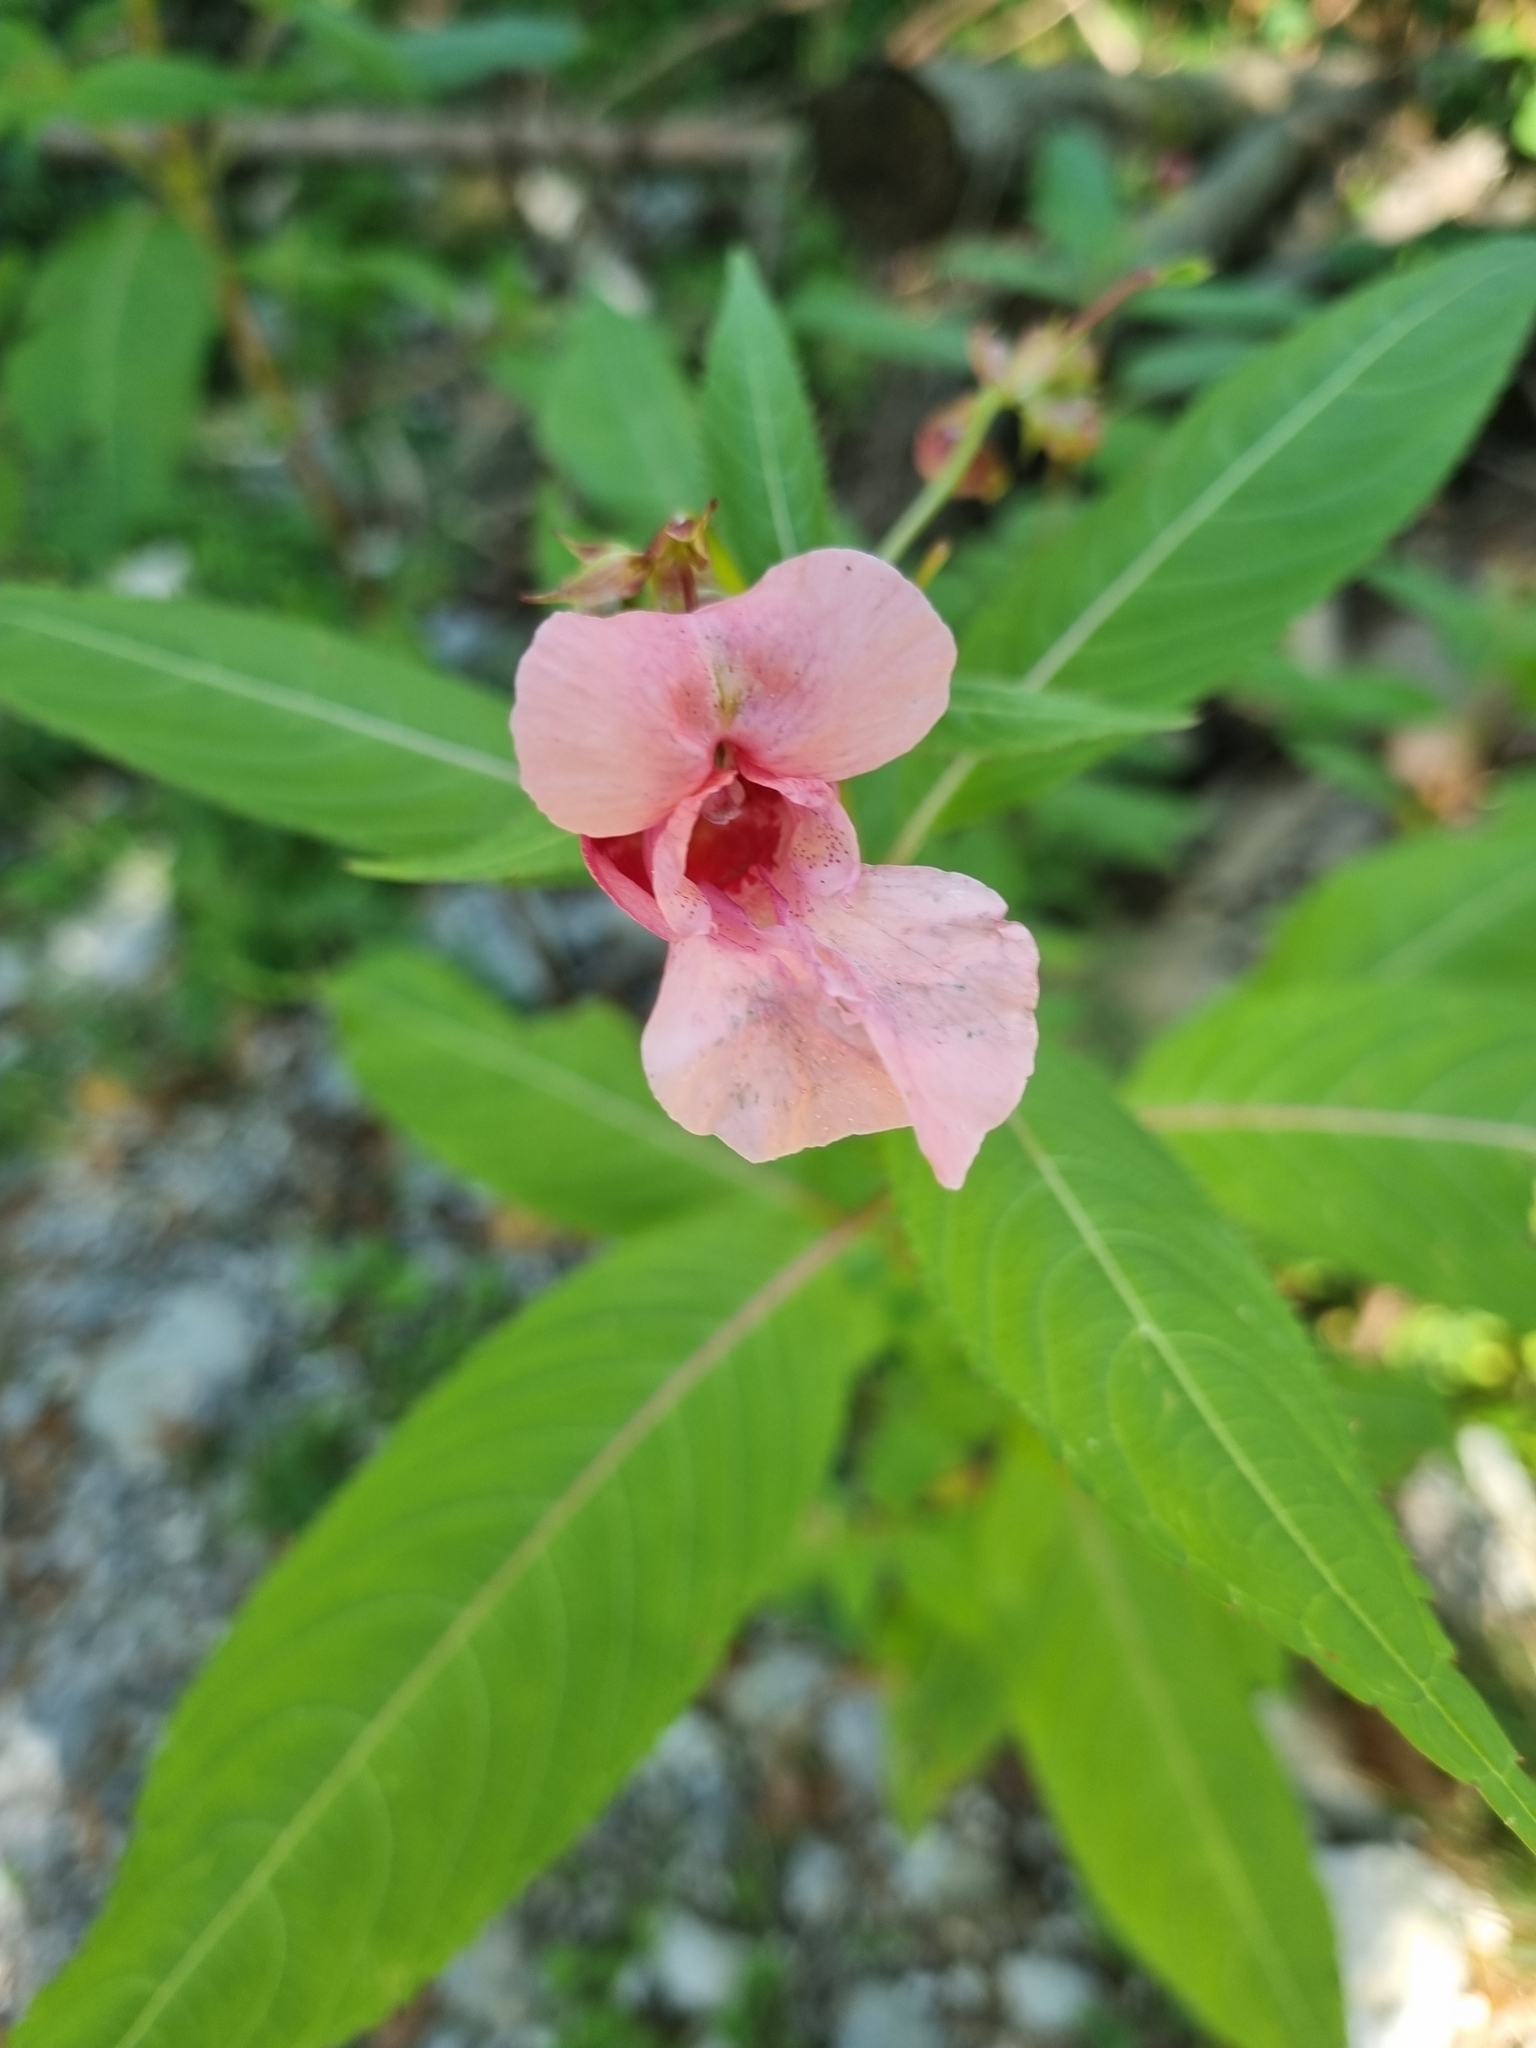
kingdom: Plantae
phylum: Tracheophyta
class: Magnoliopsida
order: Ericales
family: Balsaminaceae
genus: Impatiens
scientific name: Impatiens glandulifera
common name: Himalayan balsam
